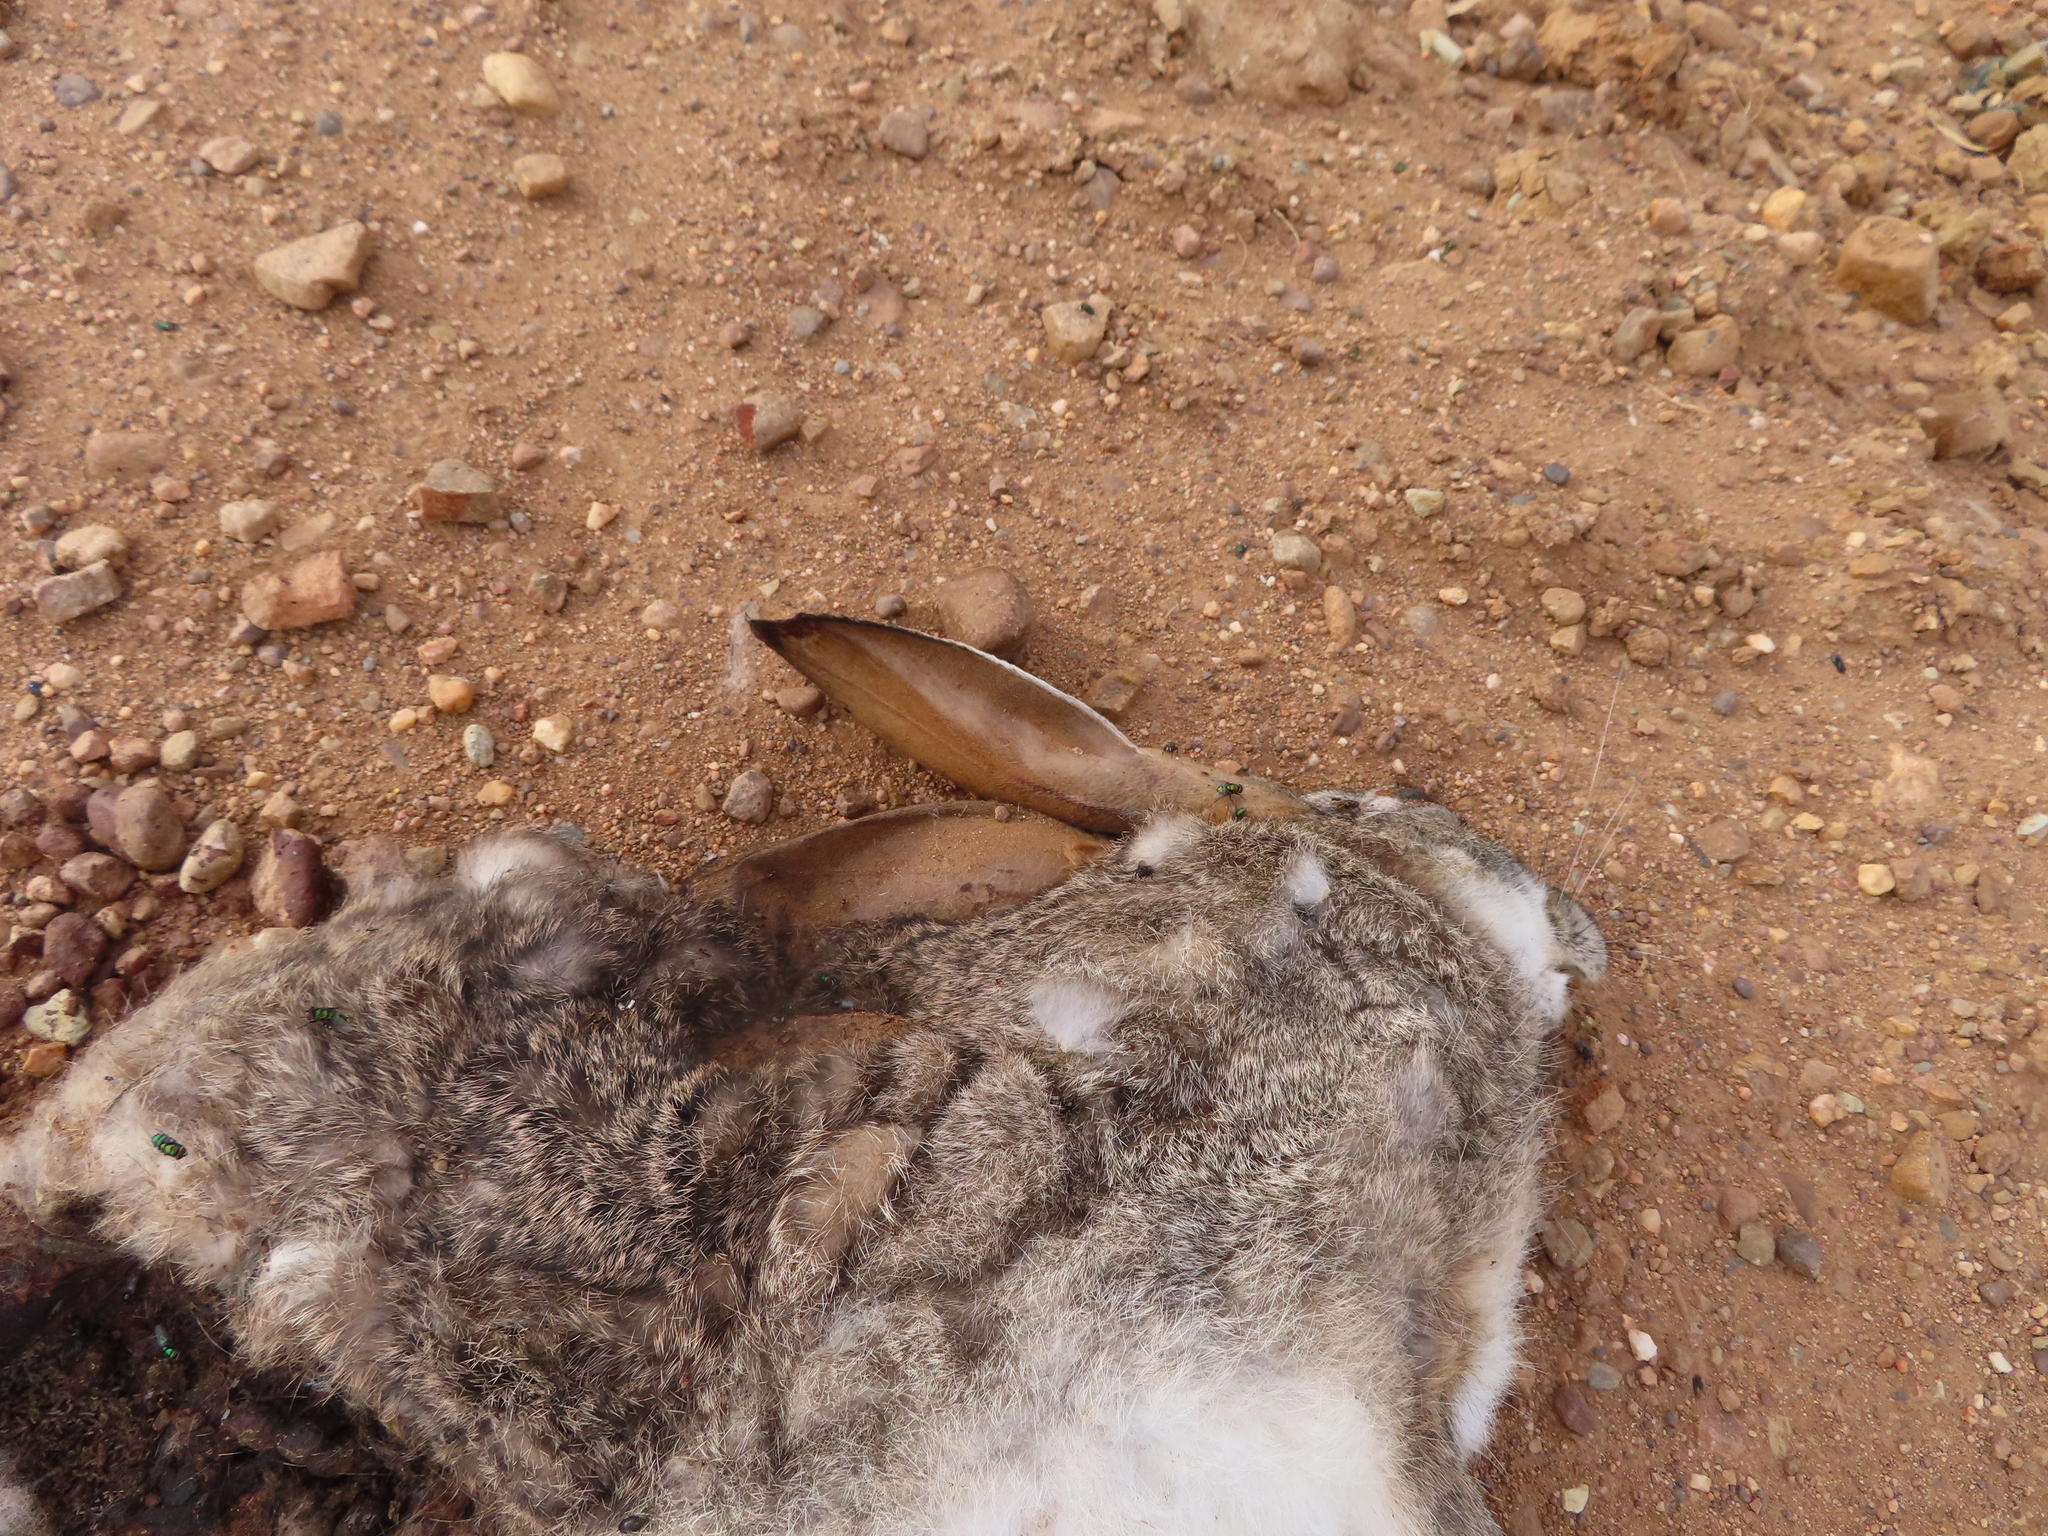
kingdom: Animalia
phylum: Chordata
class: Mammalia
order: Lagomorpha
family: Leporidae
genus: Lepus
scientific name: Lepus saxatilis
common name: Scrub hare
